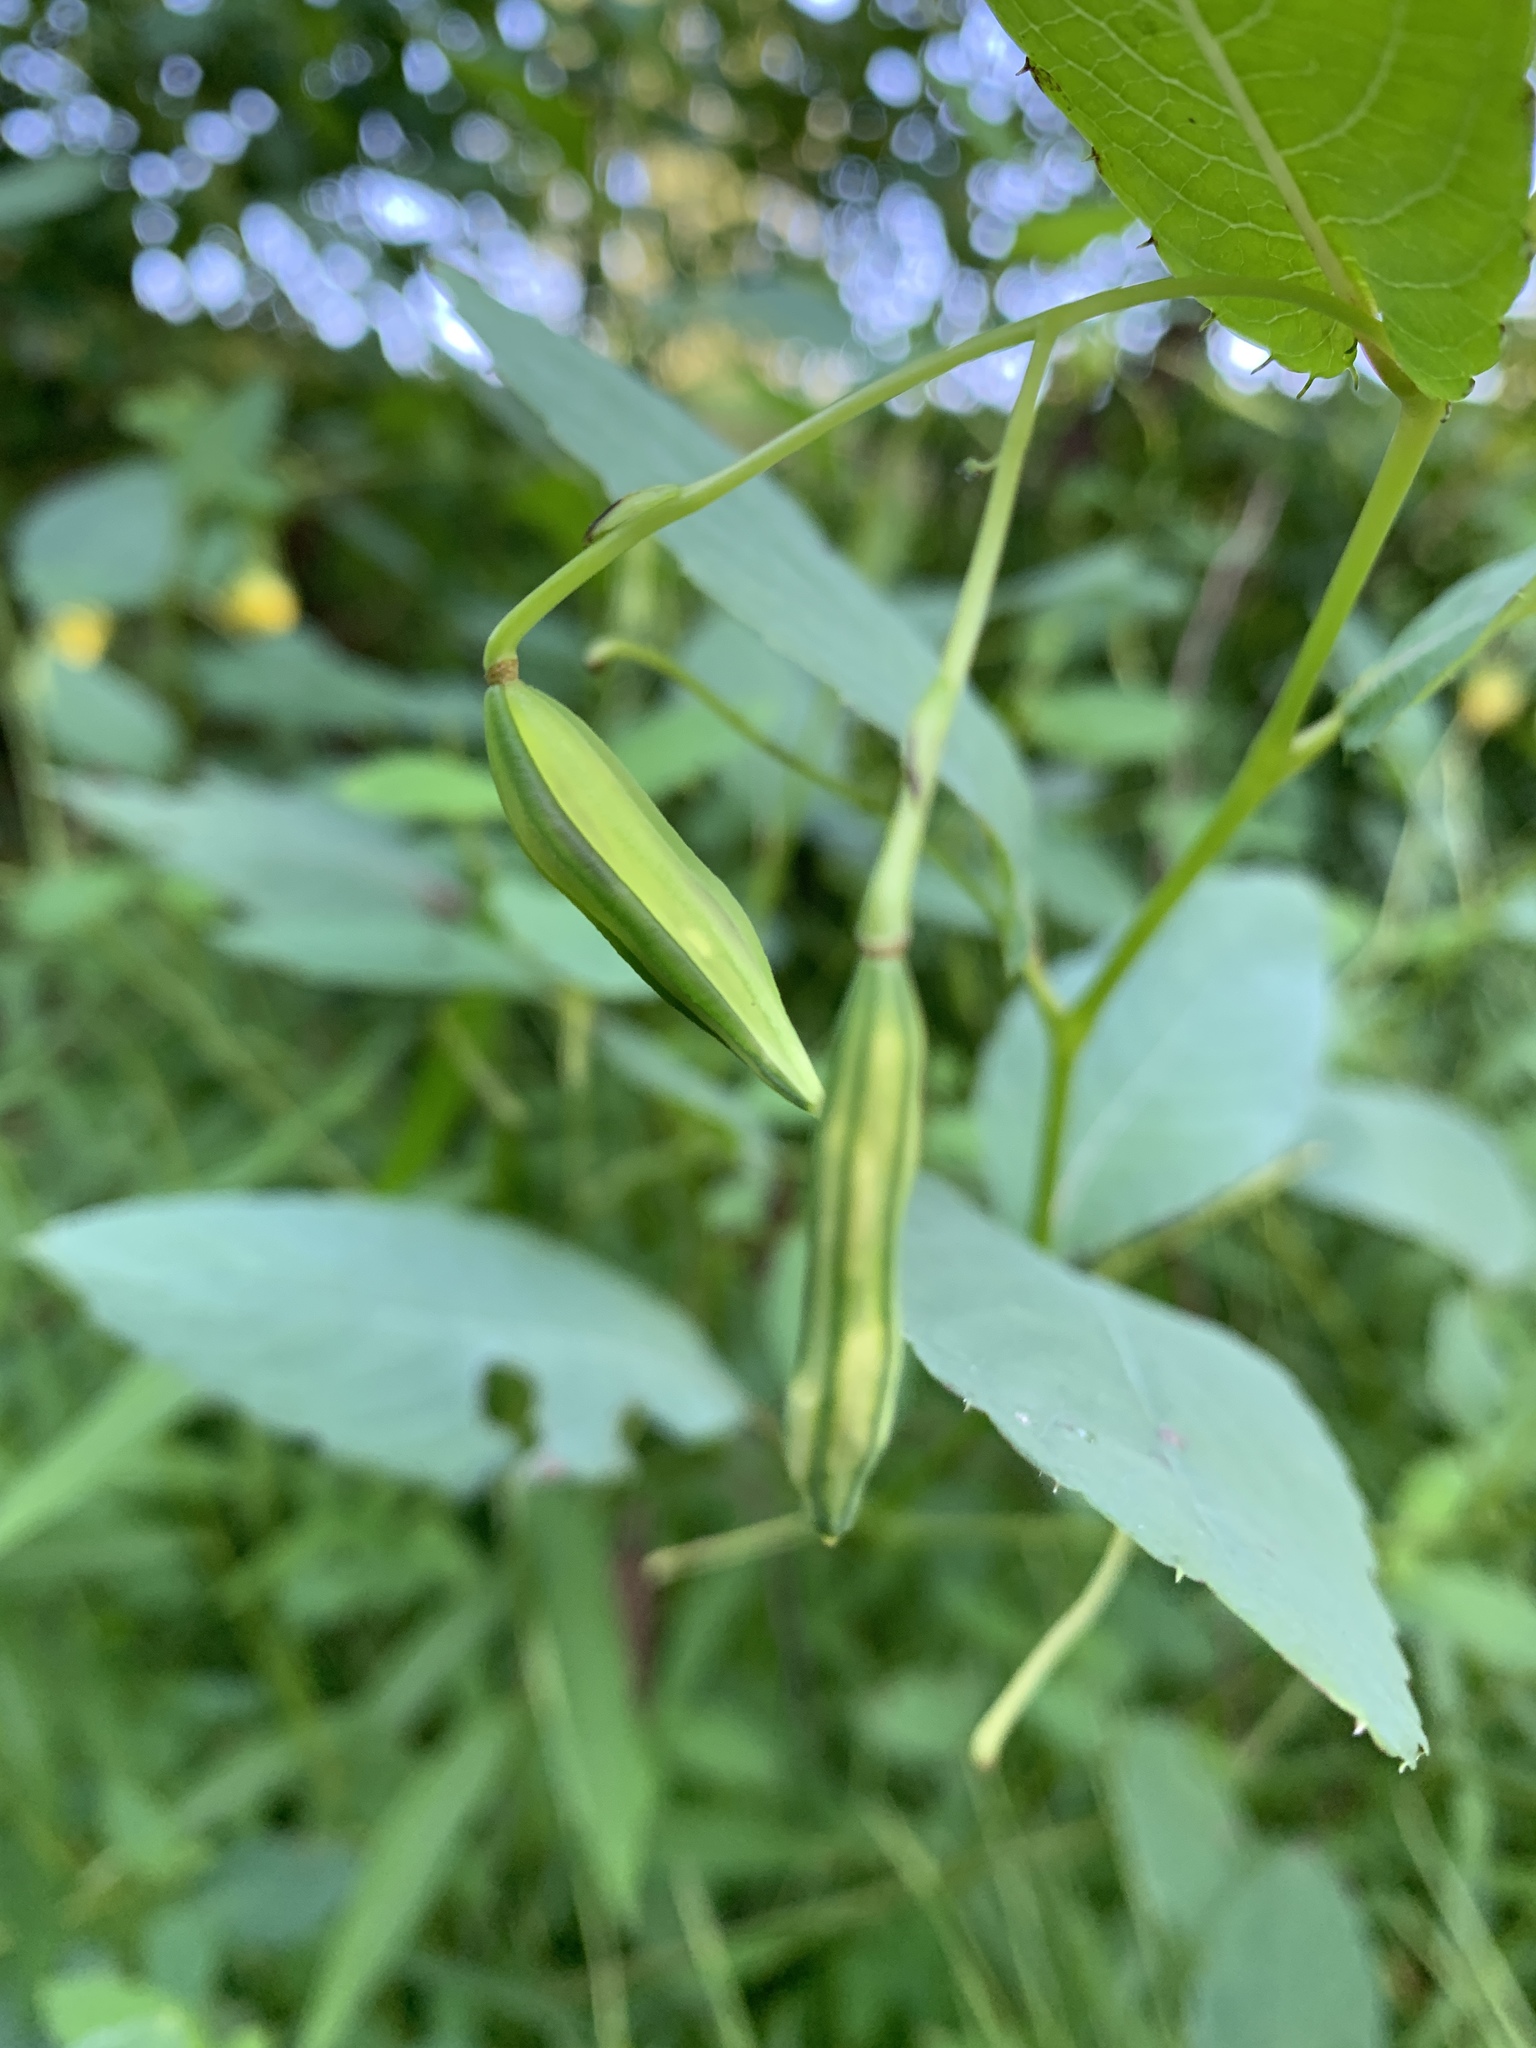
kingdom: Plantae
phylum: Tracheophyta
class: Magnoliopsida
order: Ericales
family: Balsaminaceae
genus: Impatiens
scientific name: Impatiens pallida
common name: Pale snapweed
